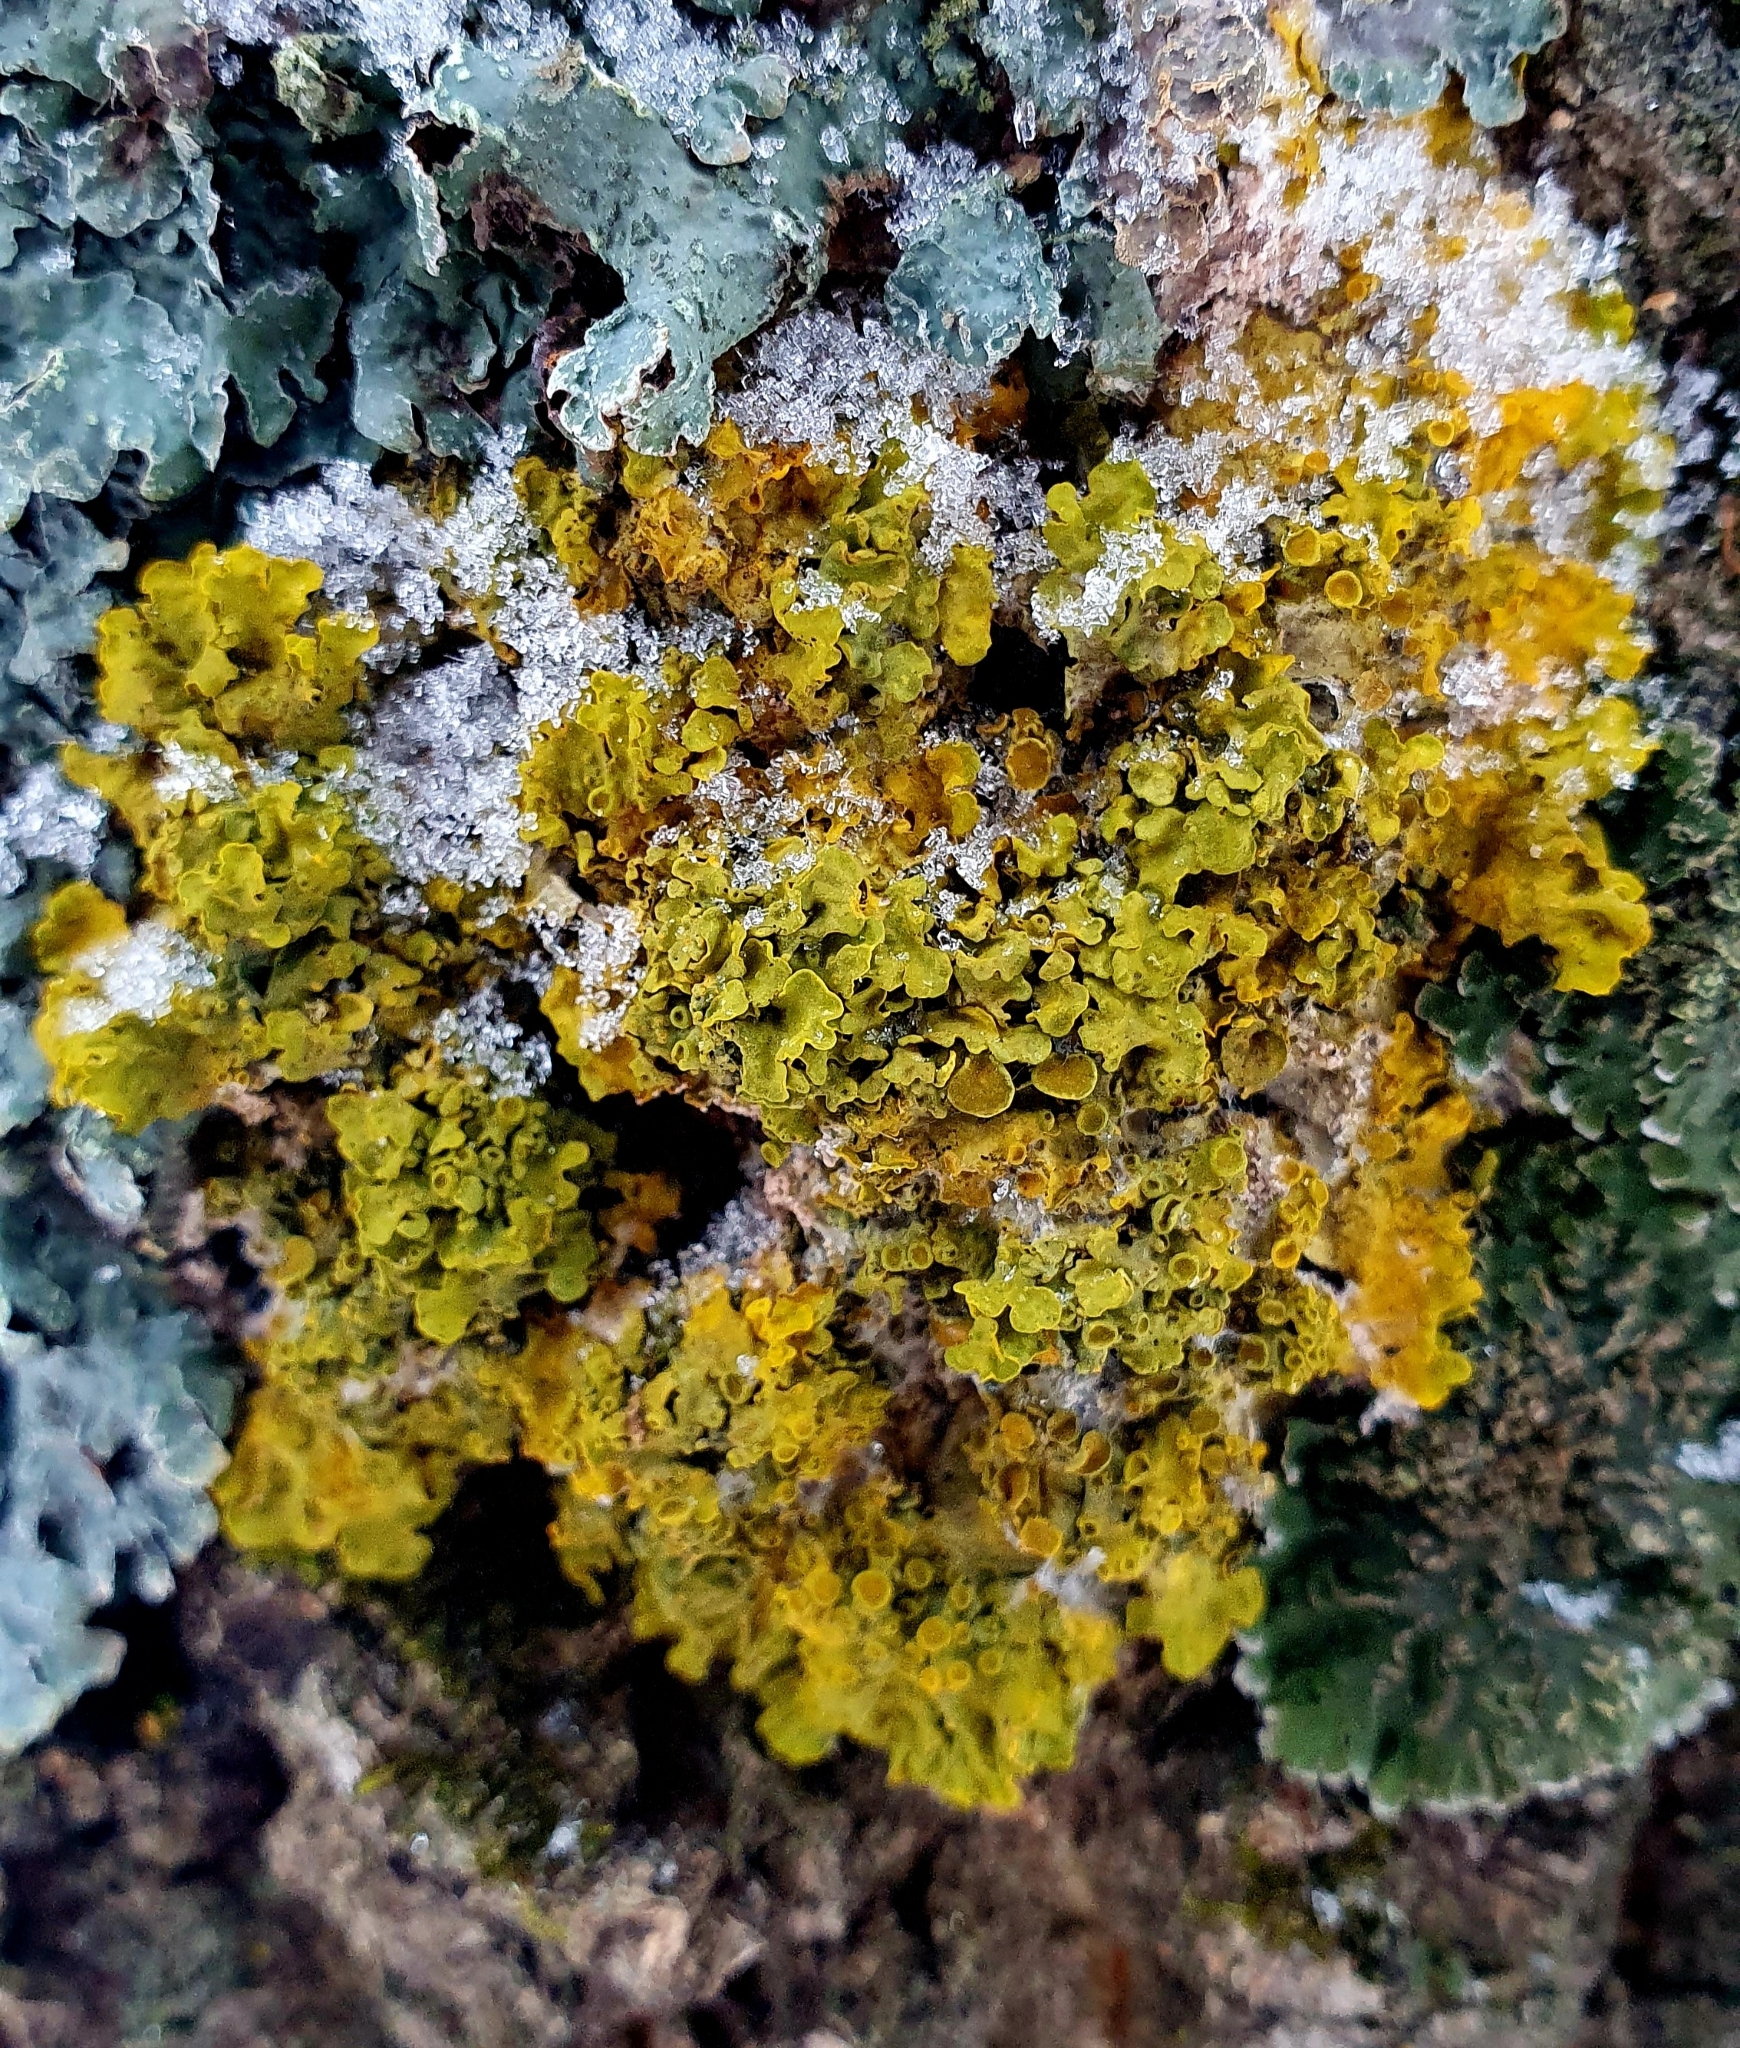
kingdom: Fungi
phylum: Ascomycota
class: Lecanoromycetes
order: Teloschistales
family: Teloschistaceae
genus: Xanthoria
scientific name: Xanthoria parietina
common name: Common orange lichen
